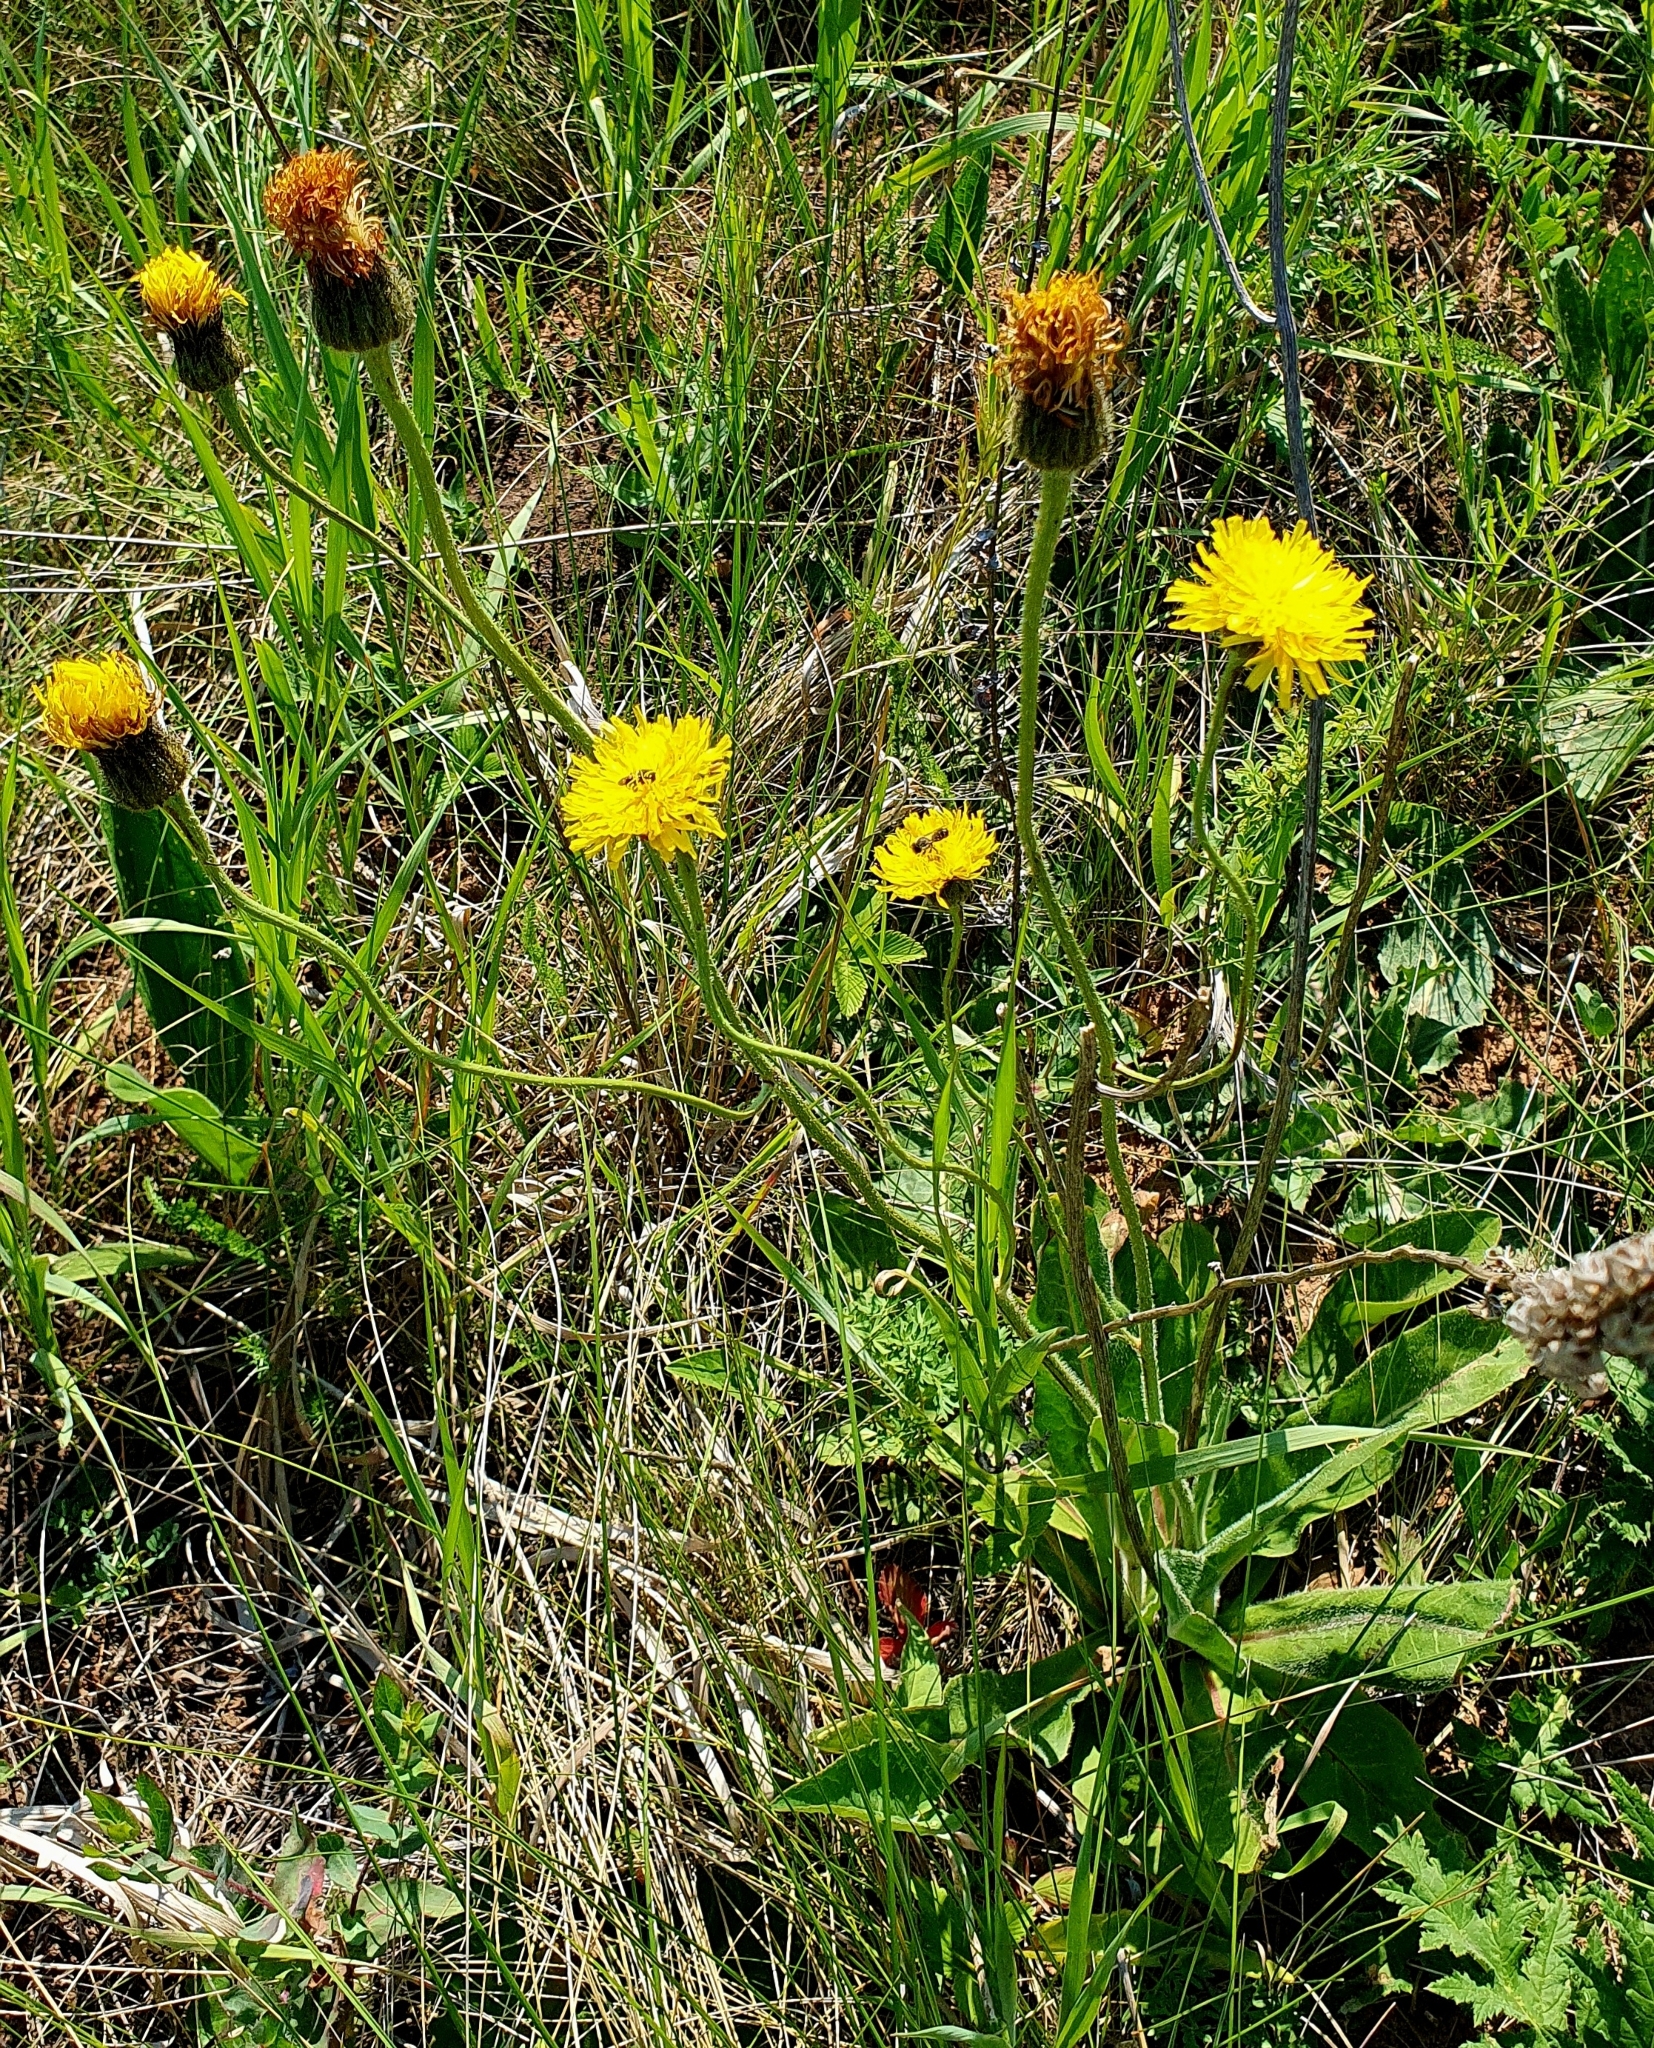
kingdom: Plantae
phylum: Tracheophyta
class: Magnoliopsida
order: Asterales
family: Asteraceae
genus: Trommsdorffia
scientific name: Trommsdorffia maculata
